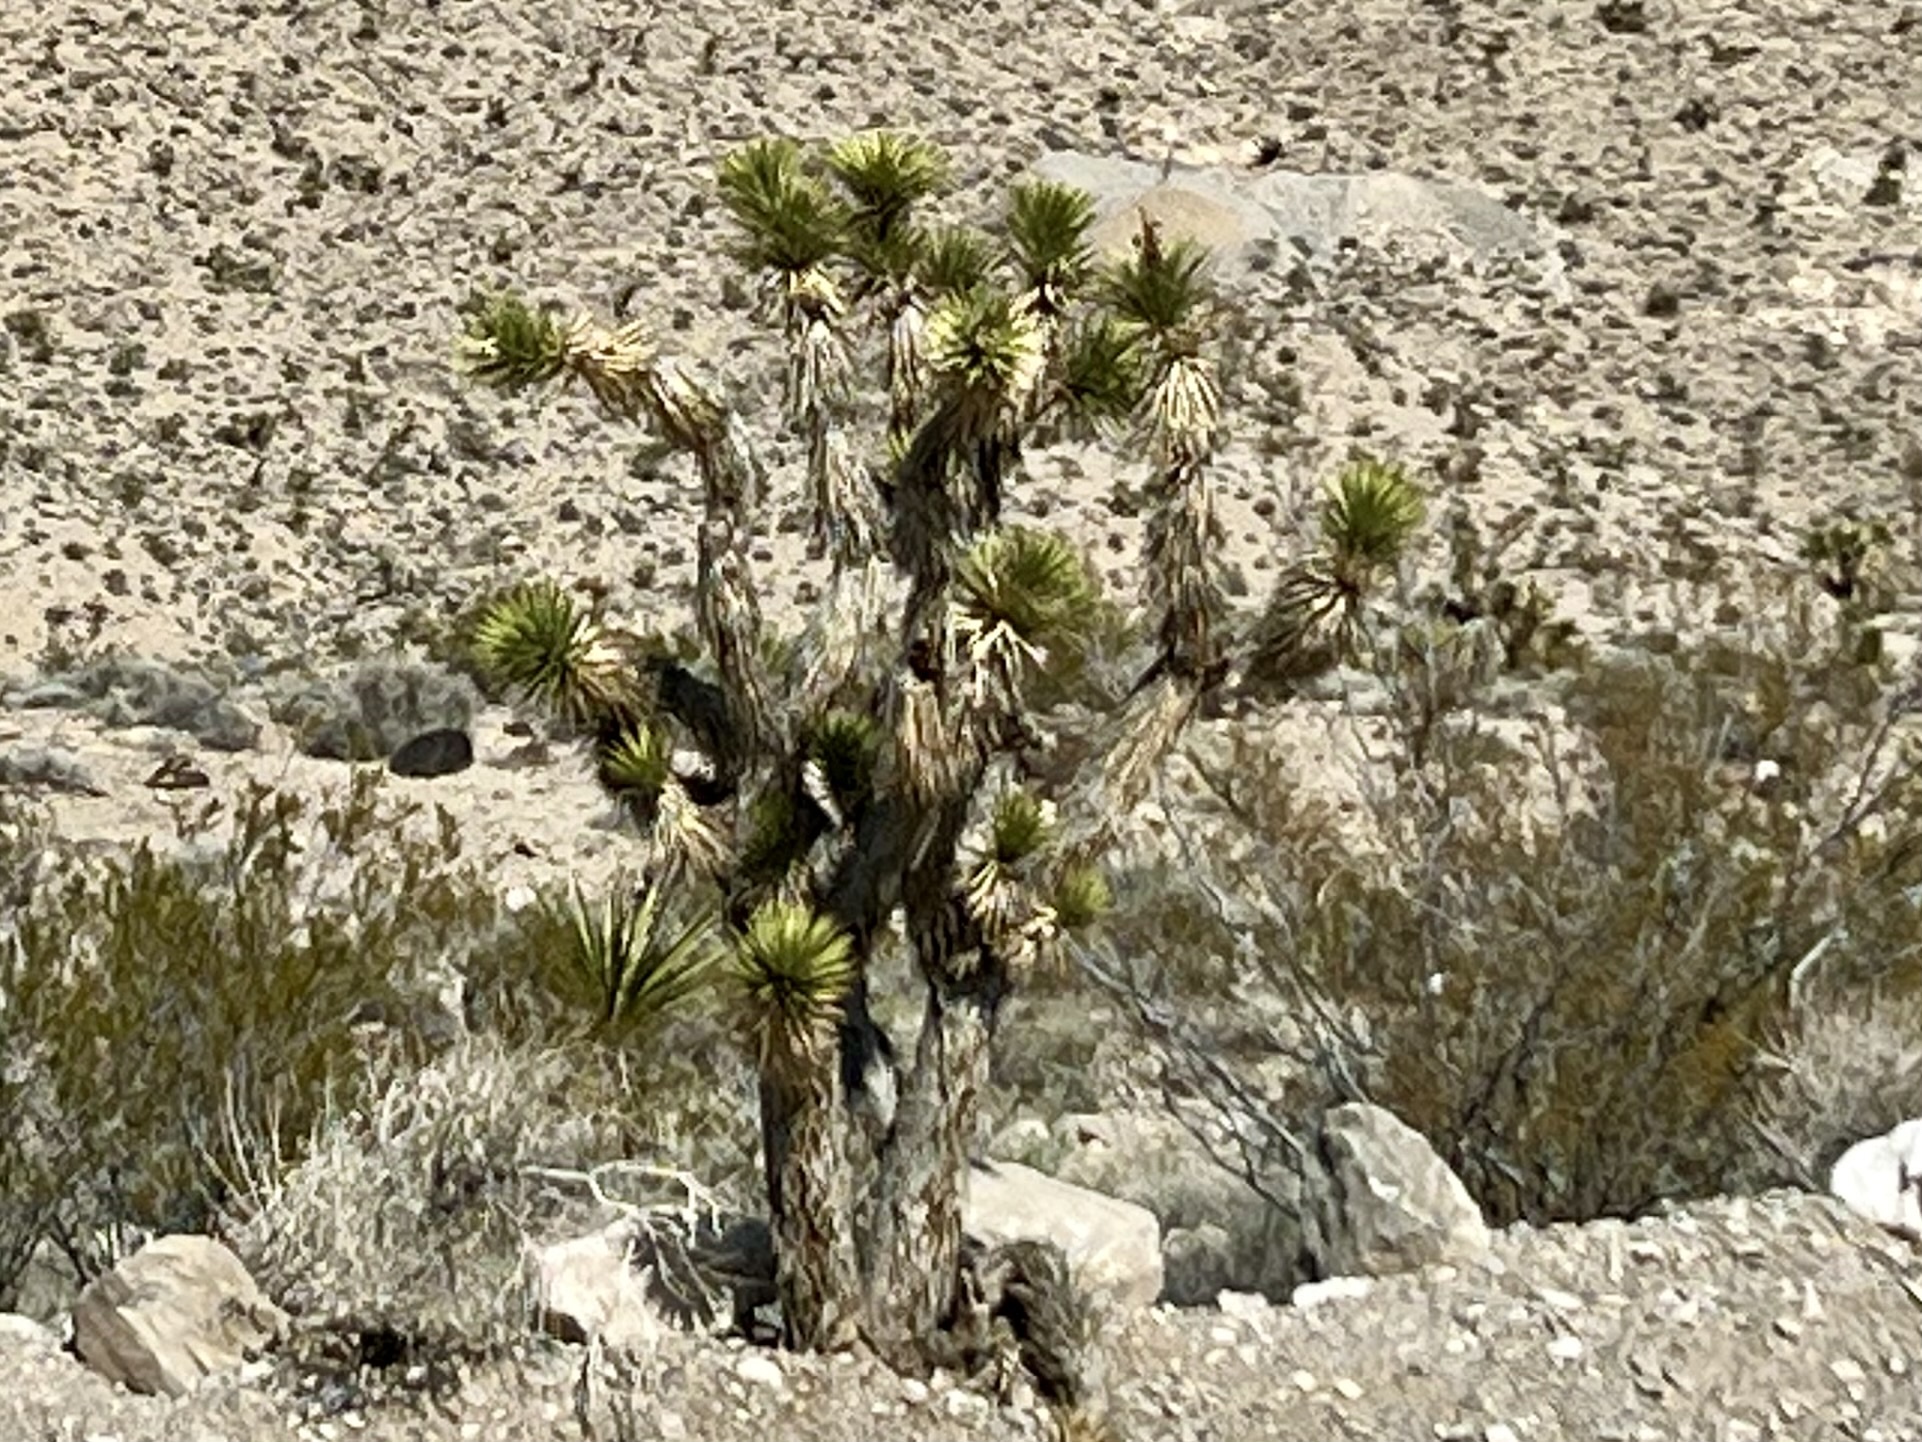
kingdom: Plantae
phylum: Tracheophyta
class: Liliopsida
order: Asparagales
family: Asparagaceae
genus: Yucca
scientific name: Yucca brevifolia
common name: Joshua tree
